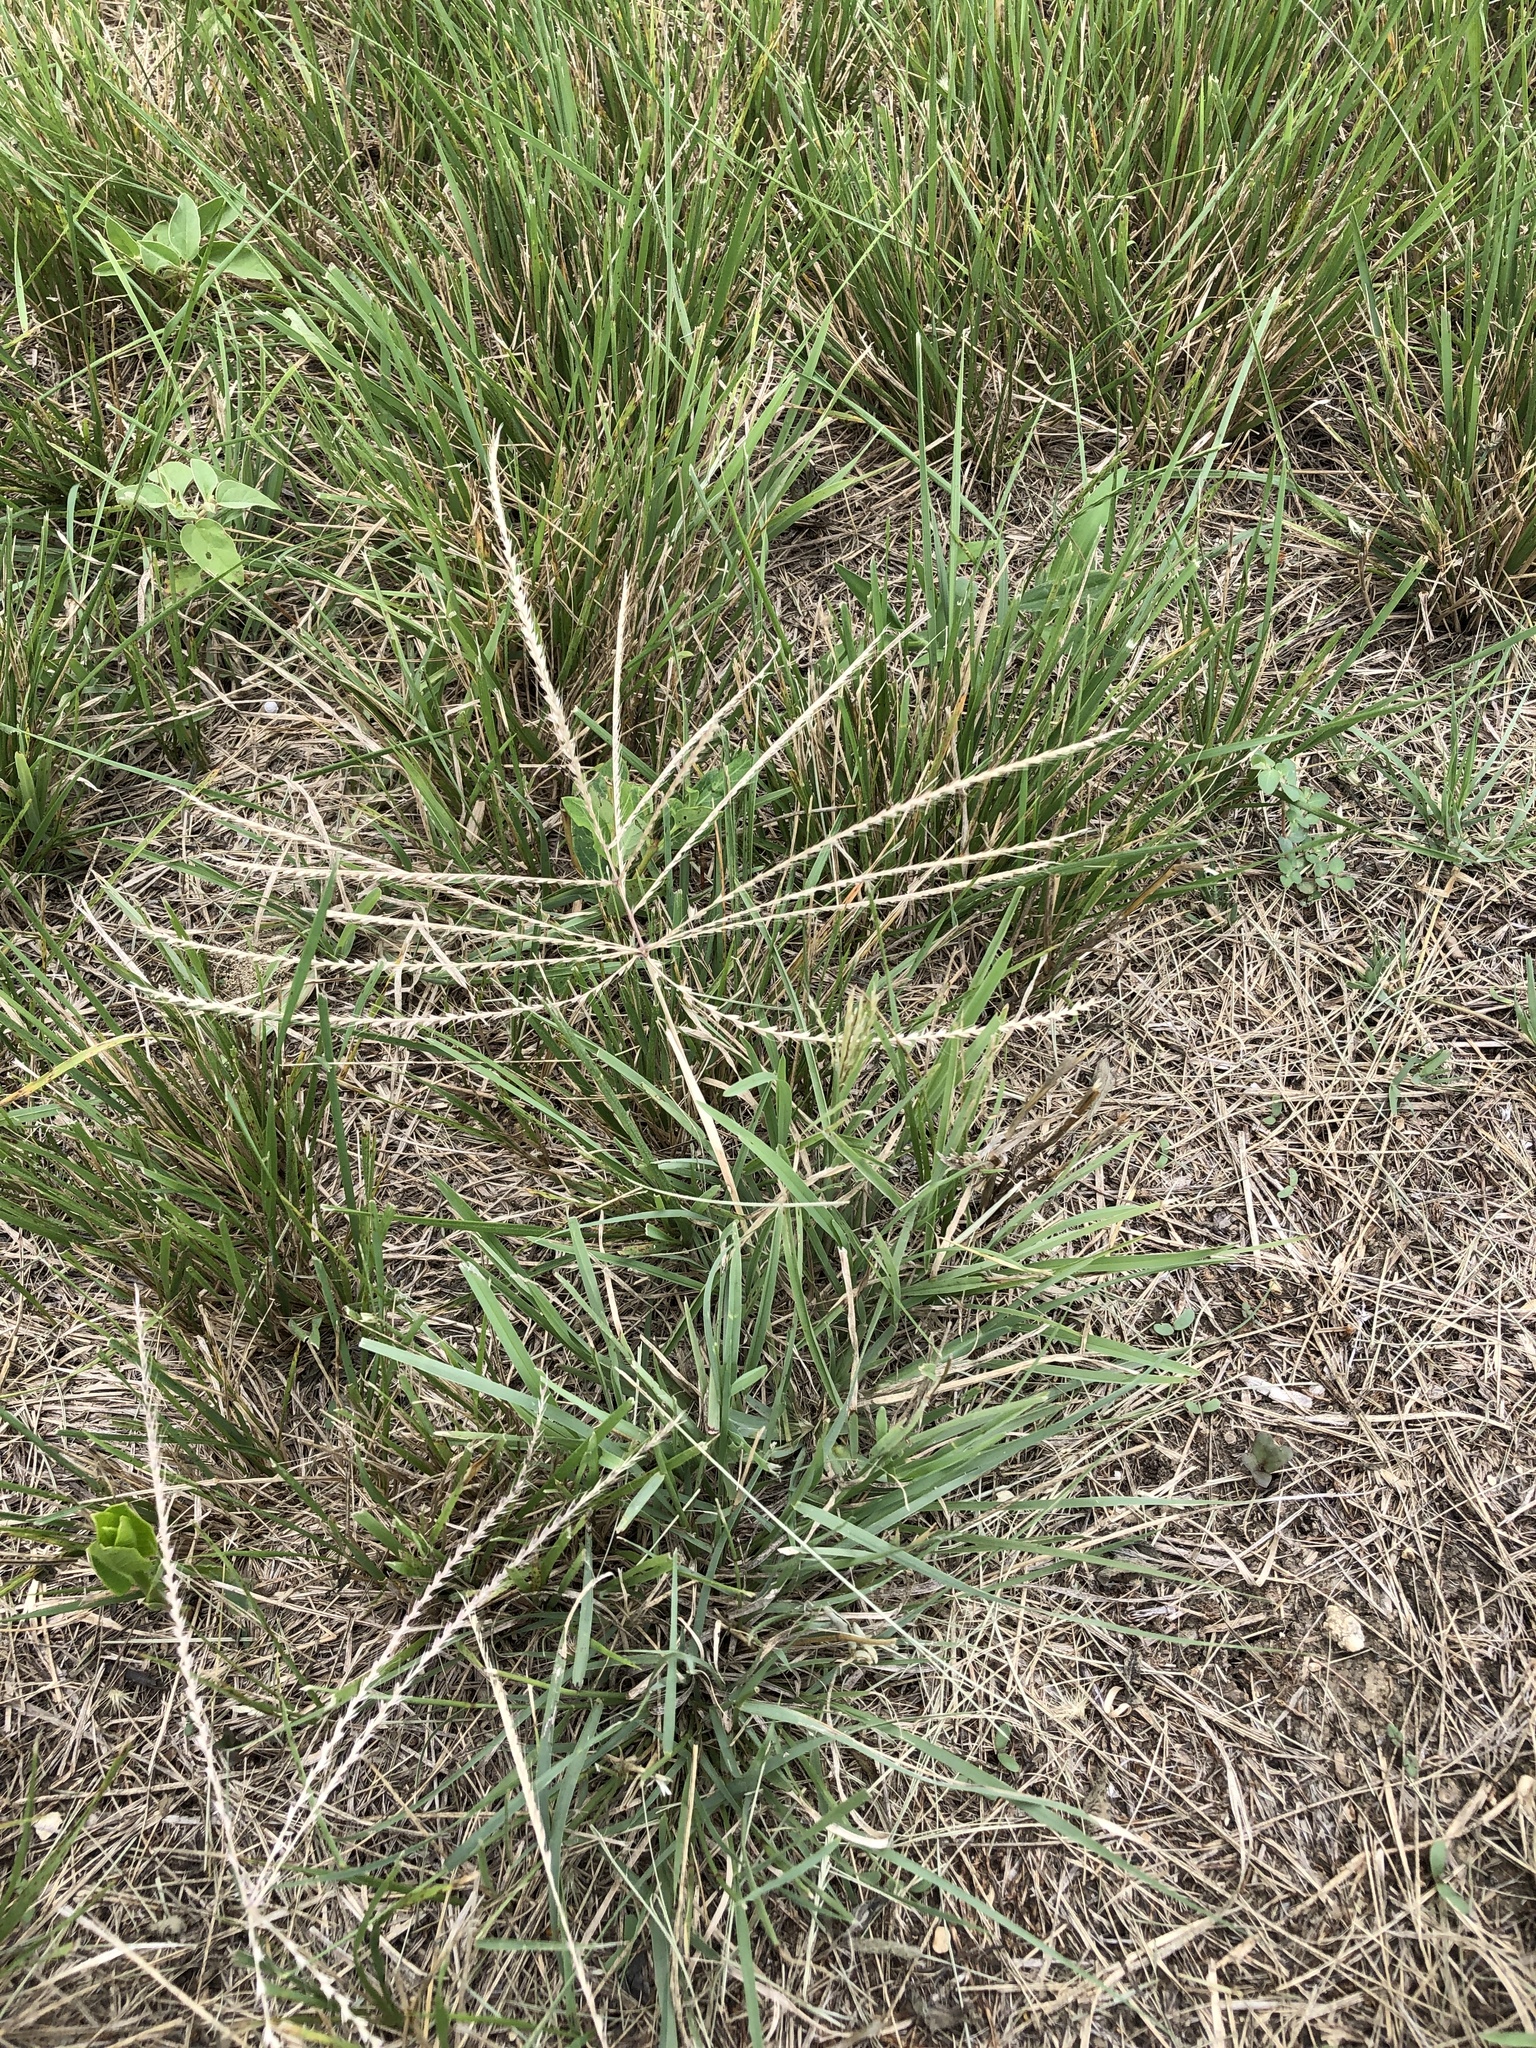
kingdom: Plantae
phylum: Tracheophyta
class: Liliopsida
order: Poales
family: Poaceae
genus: Chloris
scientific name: Chloris verticillata
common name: Tumble windmill grass
